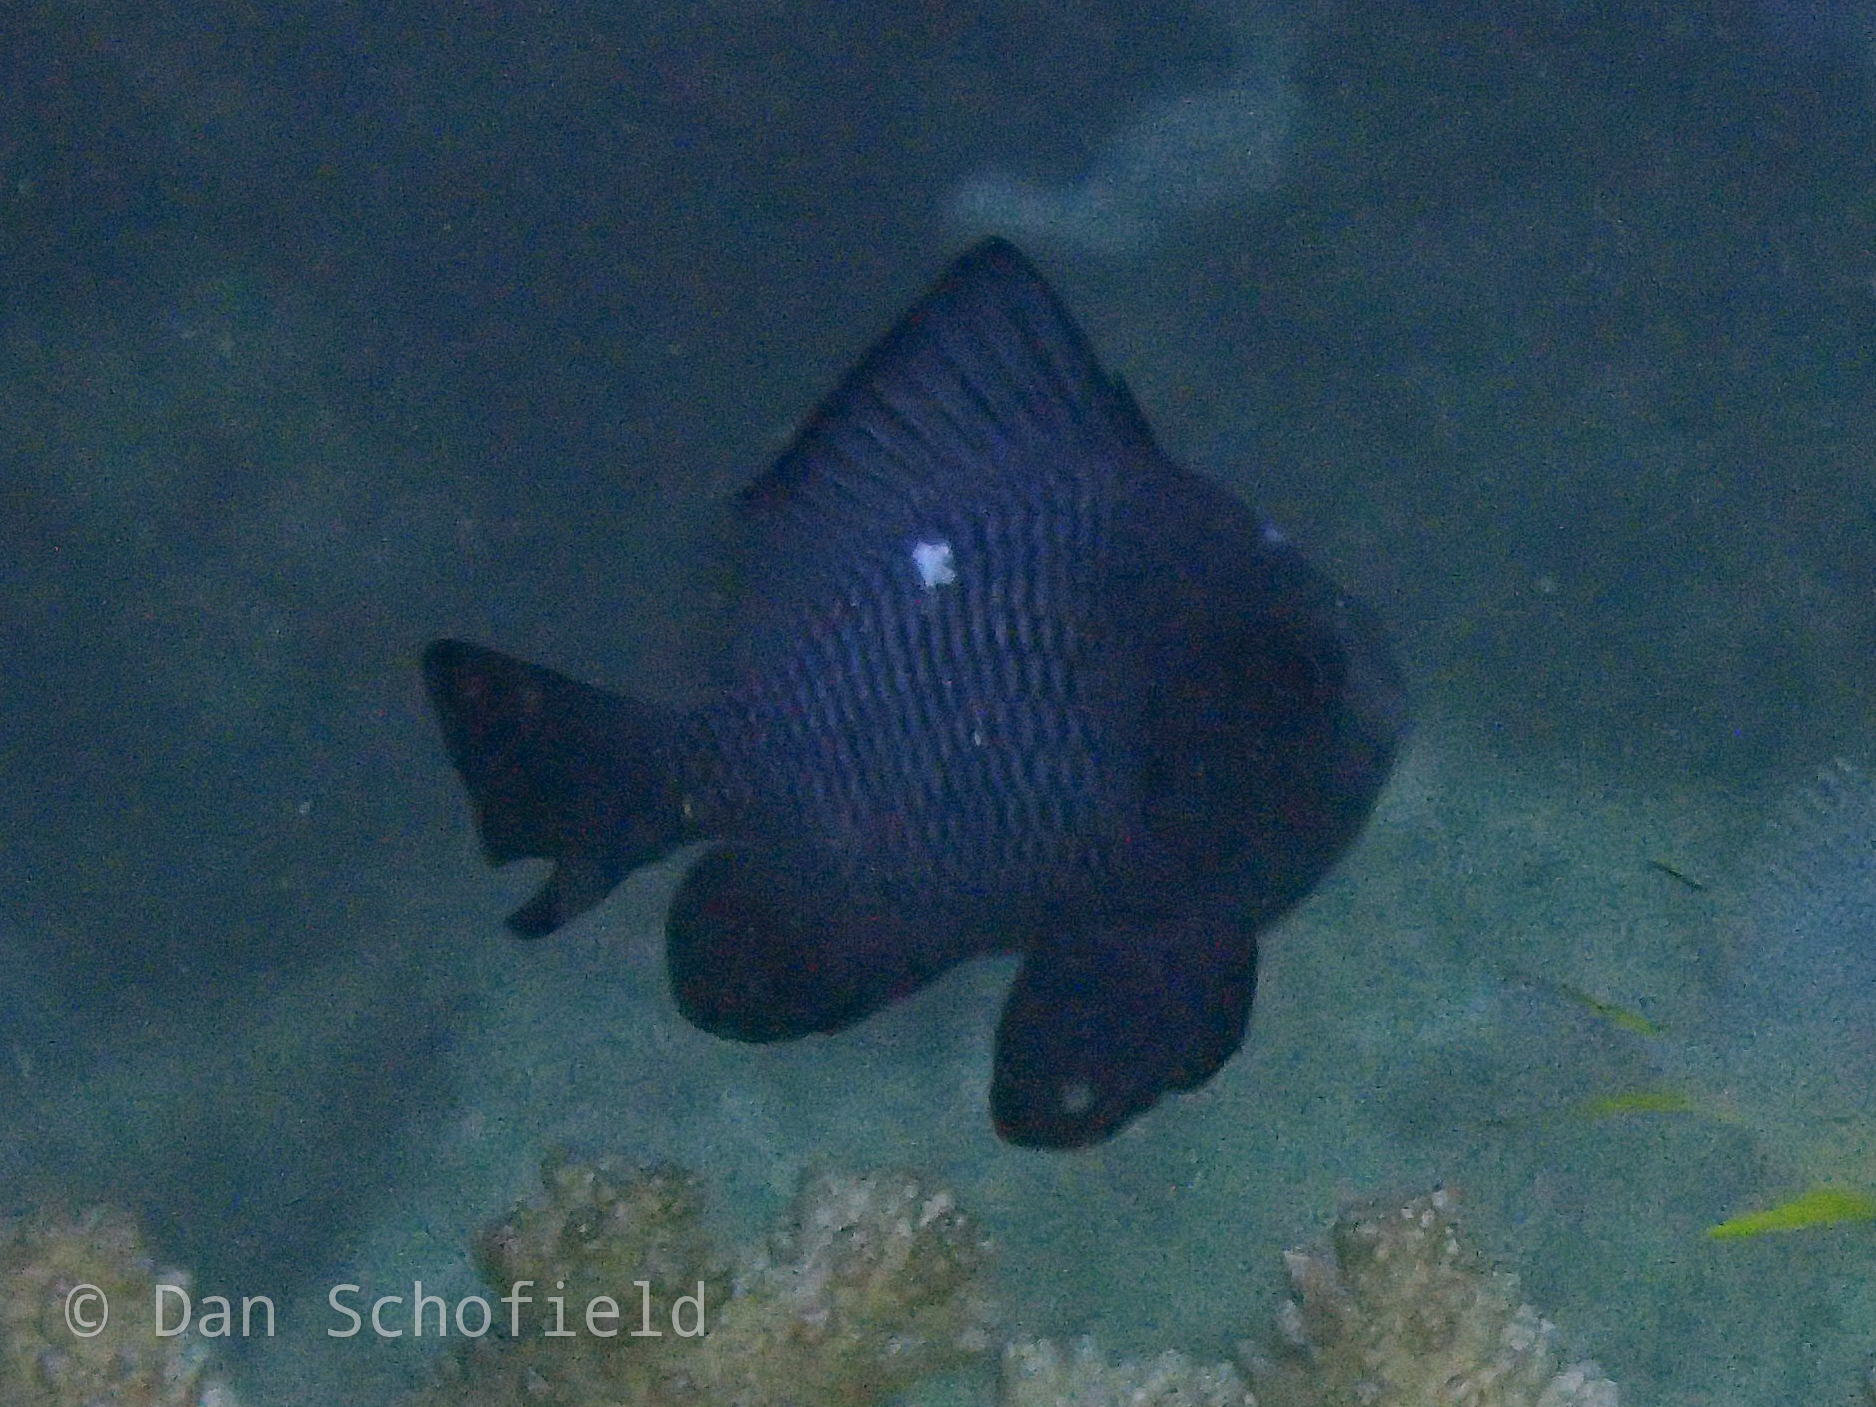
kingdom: Animalia
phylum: Chordata
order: Perciformes
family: Pomacentridae
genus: Dascyllus
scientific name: Dascyllus trimaculatus
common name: Threespot dascyllus
